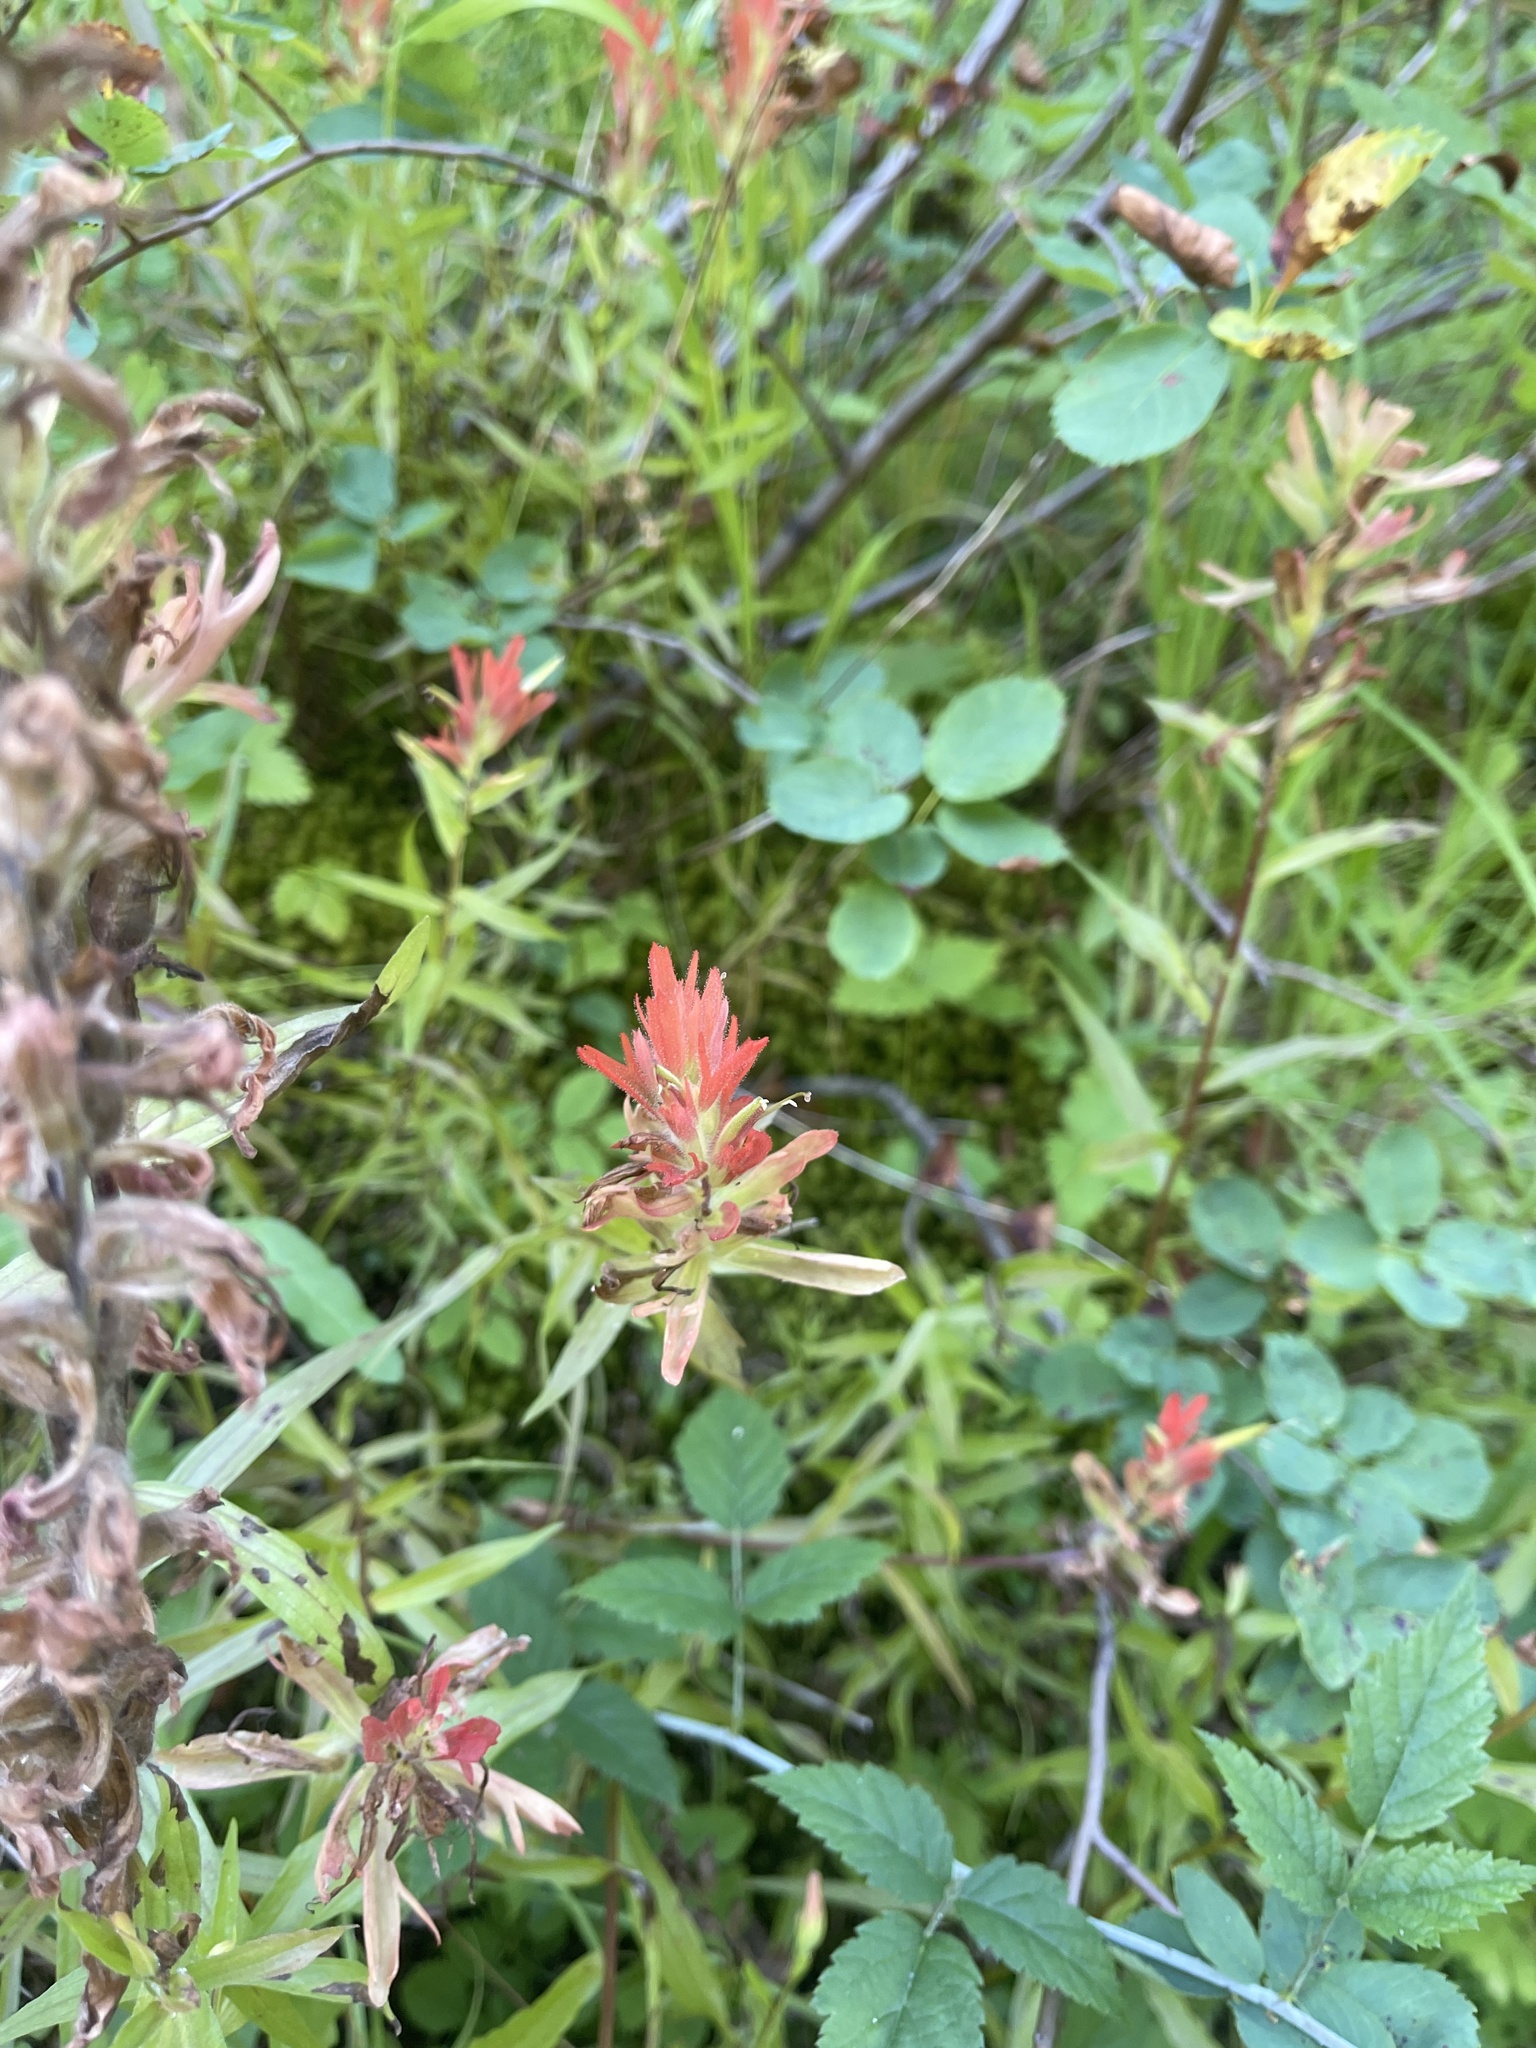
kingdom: Plantae
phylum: Tracheophyta
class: Magnoliopsida
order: Lamiales
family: Orobanchaceae
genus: Castilleja
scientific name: Castilleja miniata
